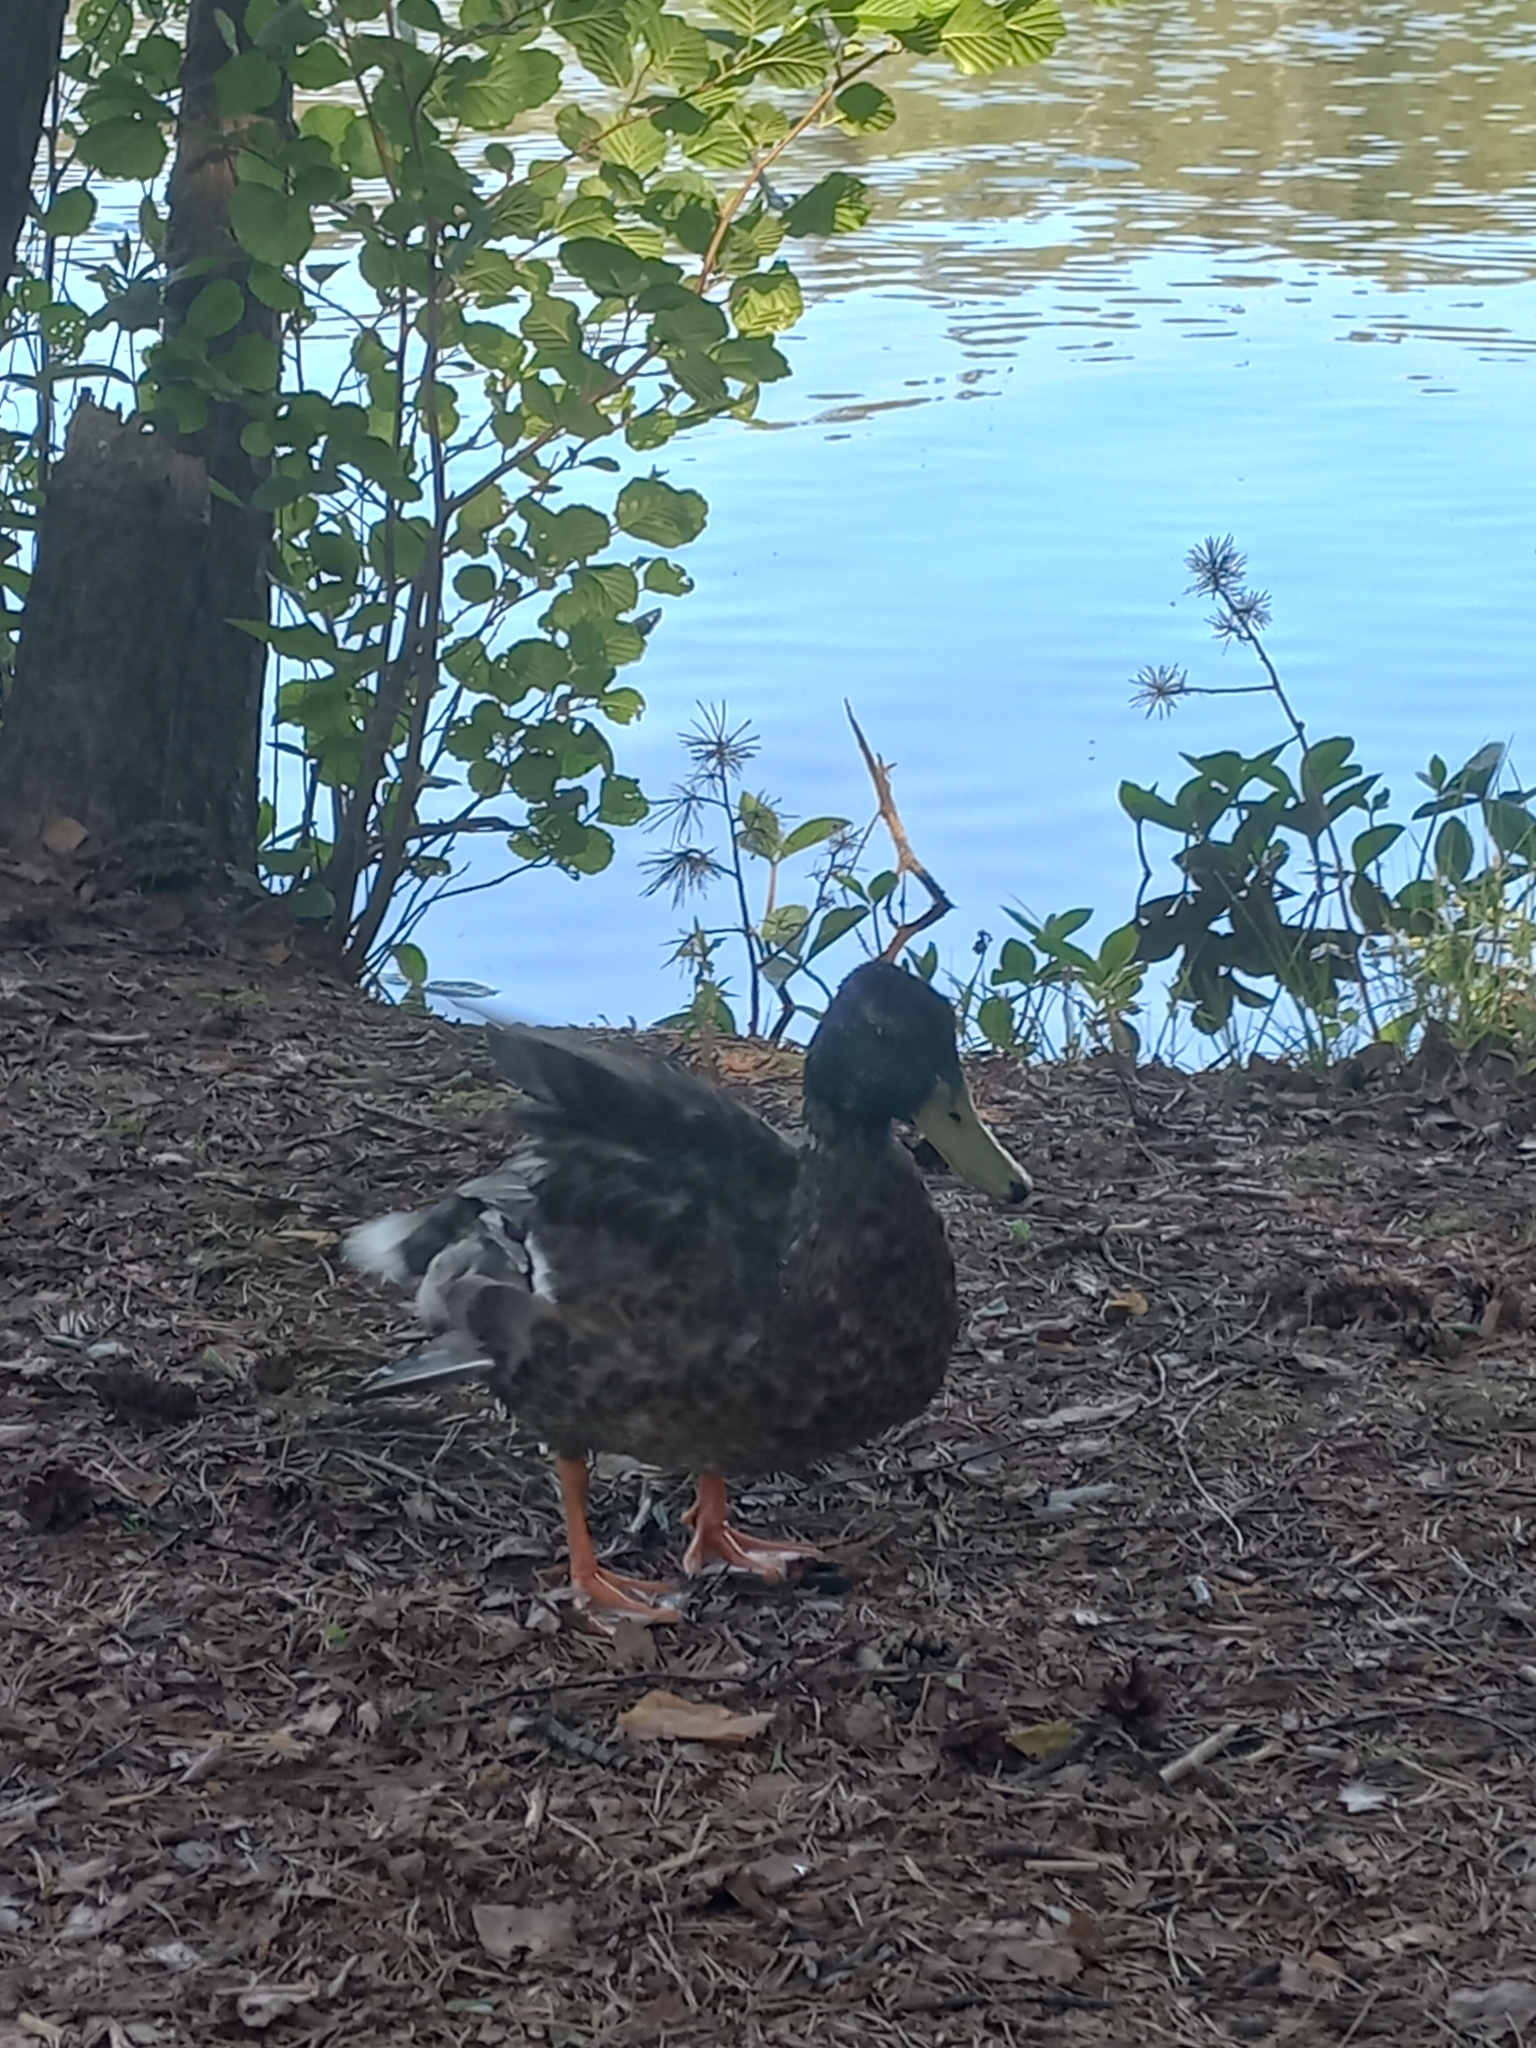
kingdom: Animalia
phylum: Chordata
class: Aves
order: Anseriformes
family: Anatidae
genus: Anas
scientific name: Anas platyrhynchos
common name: Mallard
